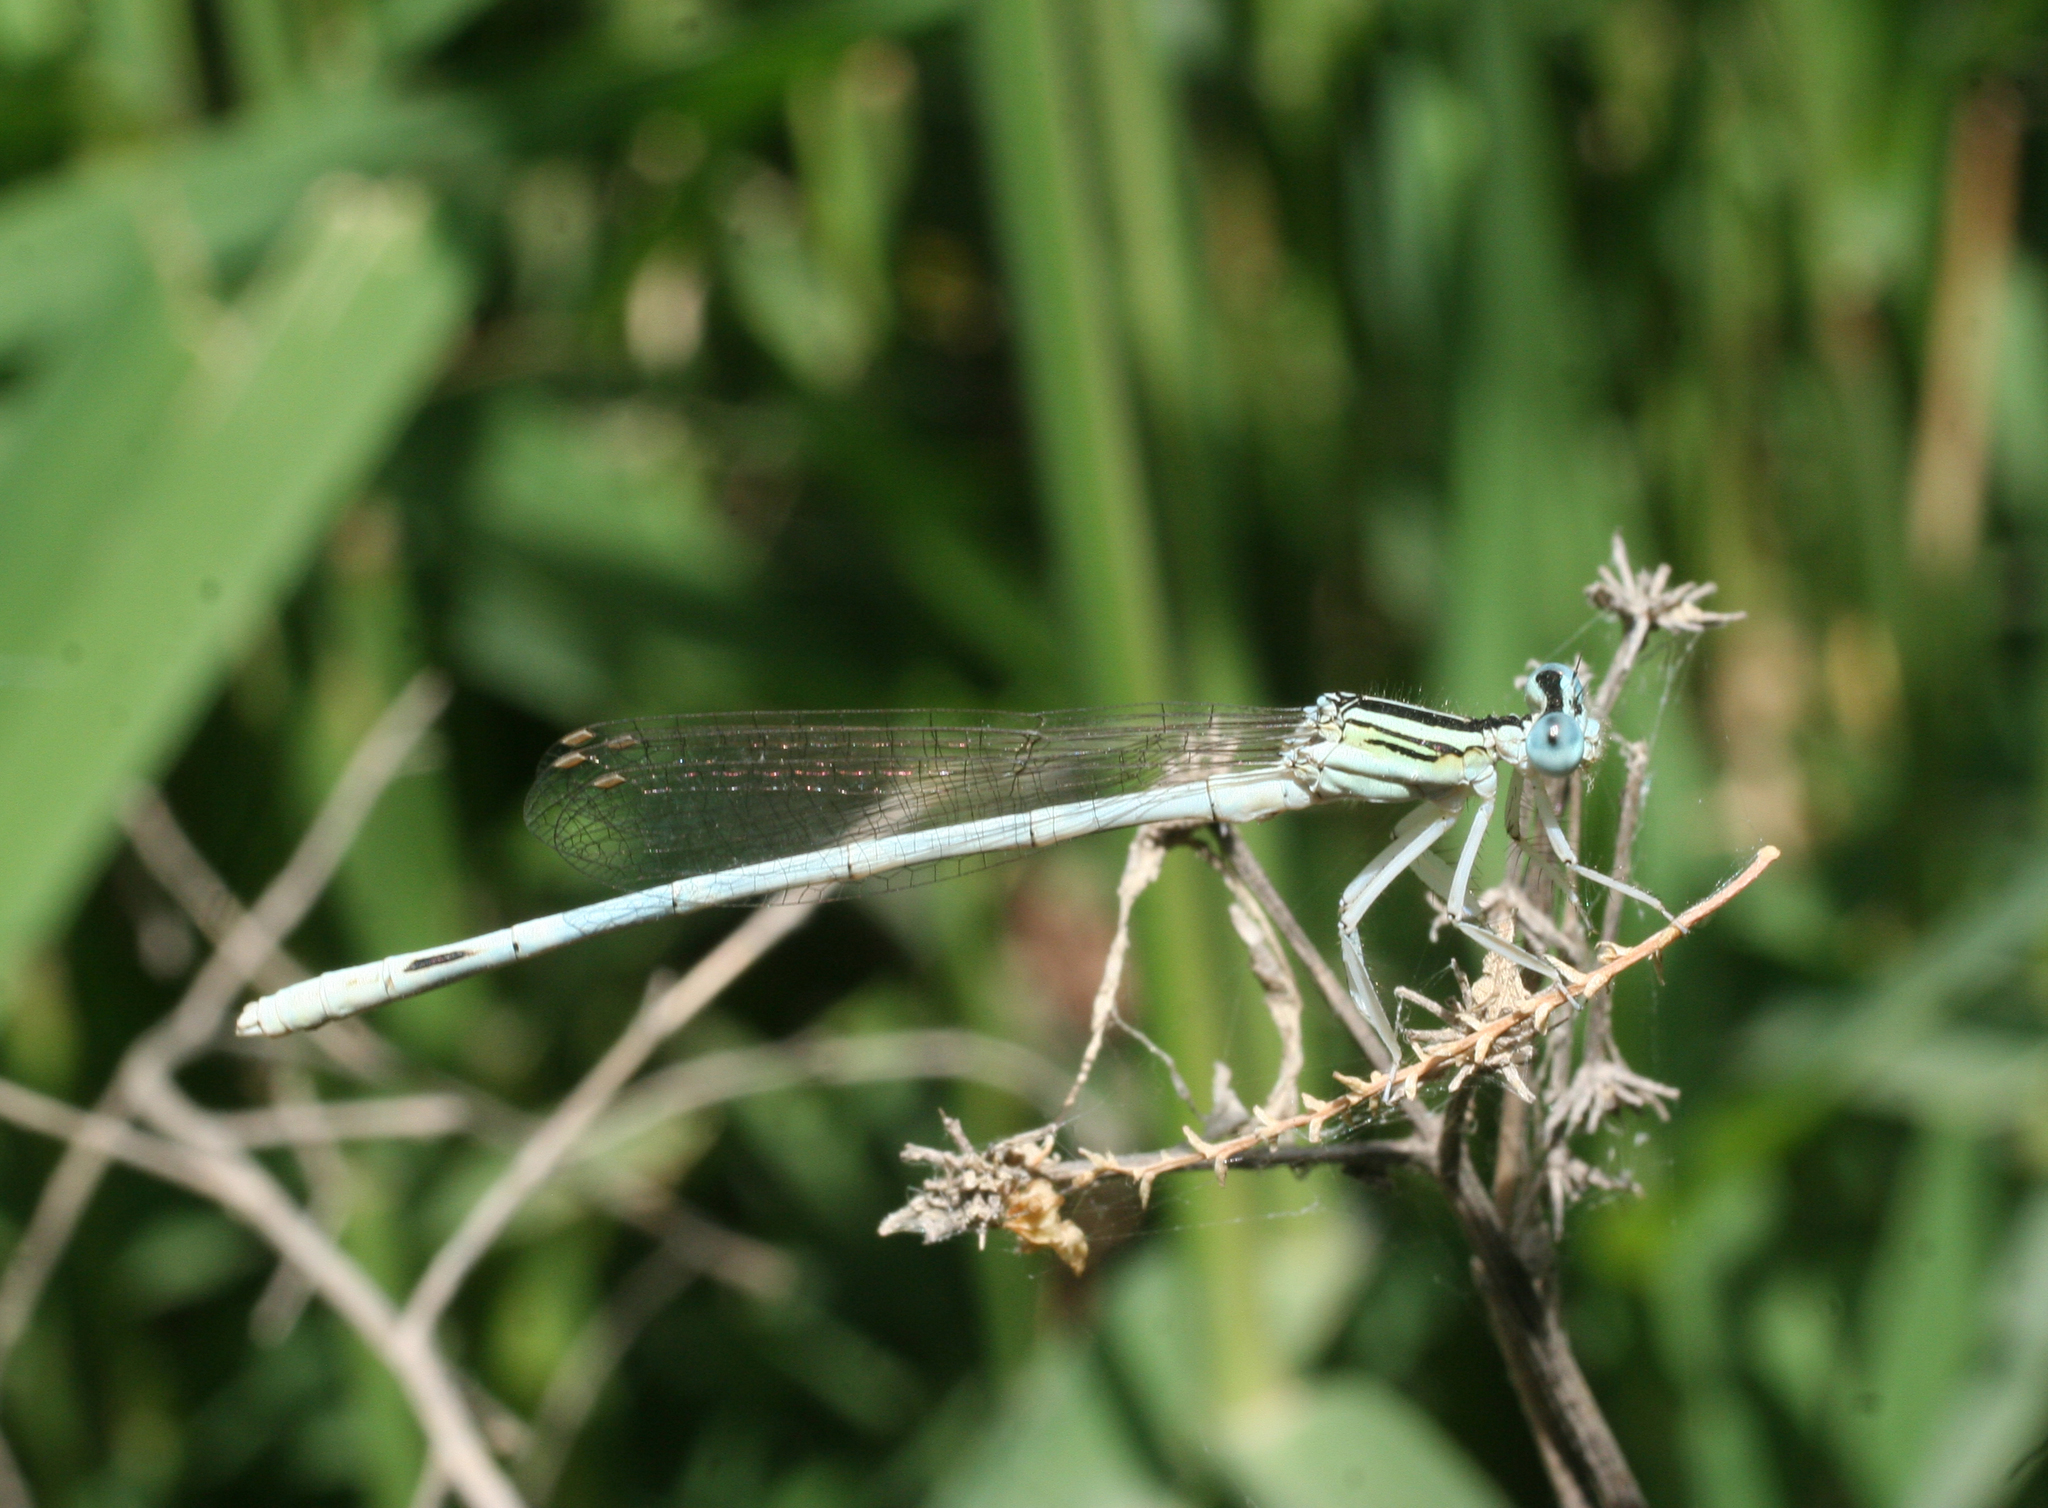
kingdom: Animalia
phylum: Arthropoda
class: Insecta
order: Odonata
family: Platycnemididae
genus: Platycnemis
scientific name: Platycnemis dealbata
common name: Ivory featherleg
